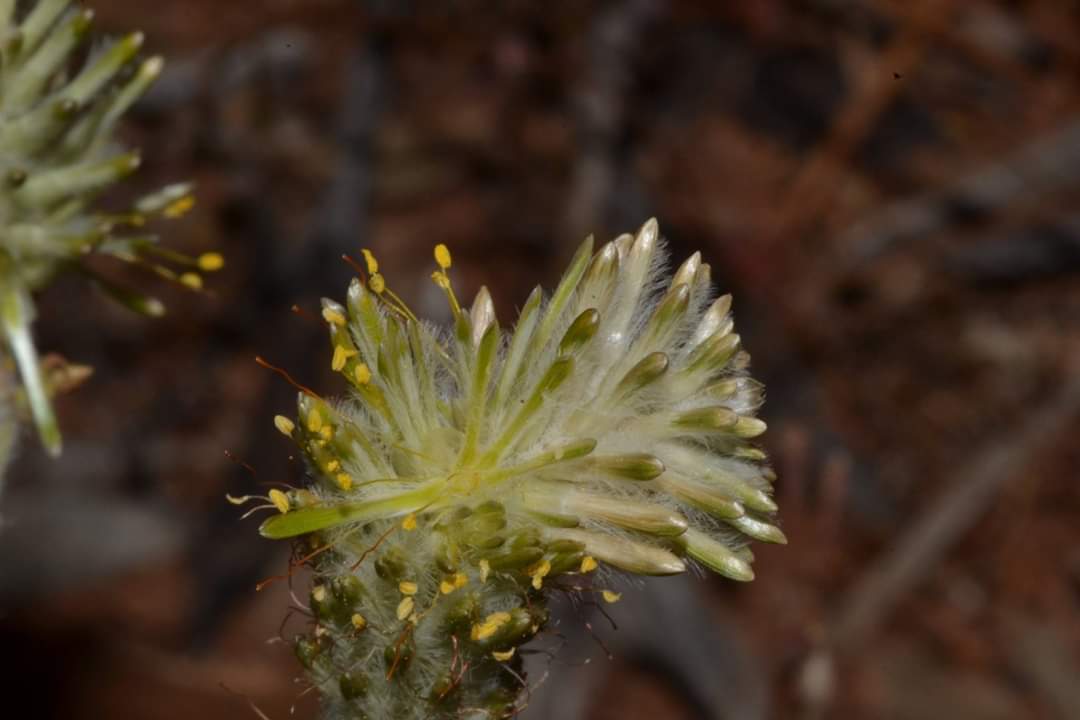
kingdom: Plantae
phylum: Tracheophyta
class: Magnoliopsida
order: Caryophyllales
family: Amaranthaceae
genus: Ptilotus
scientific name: Ptilotus polystachyus
